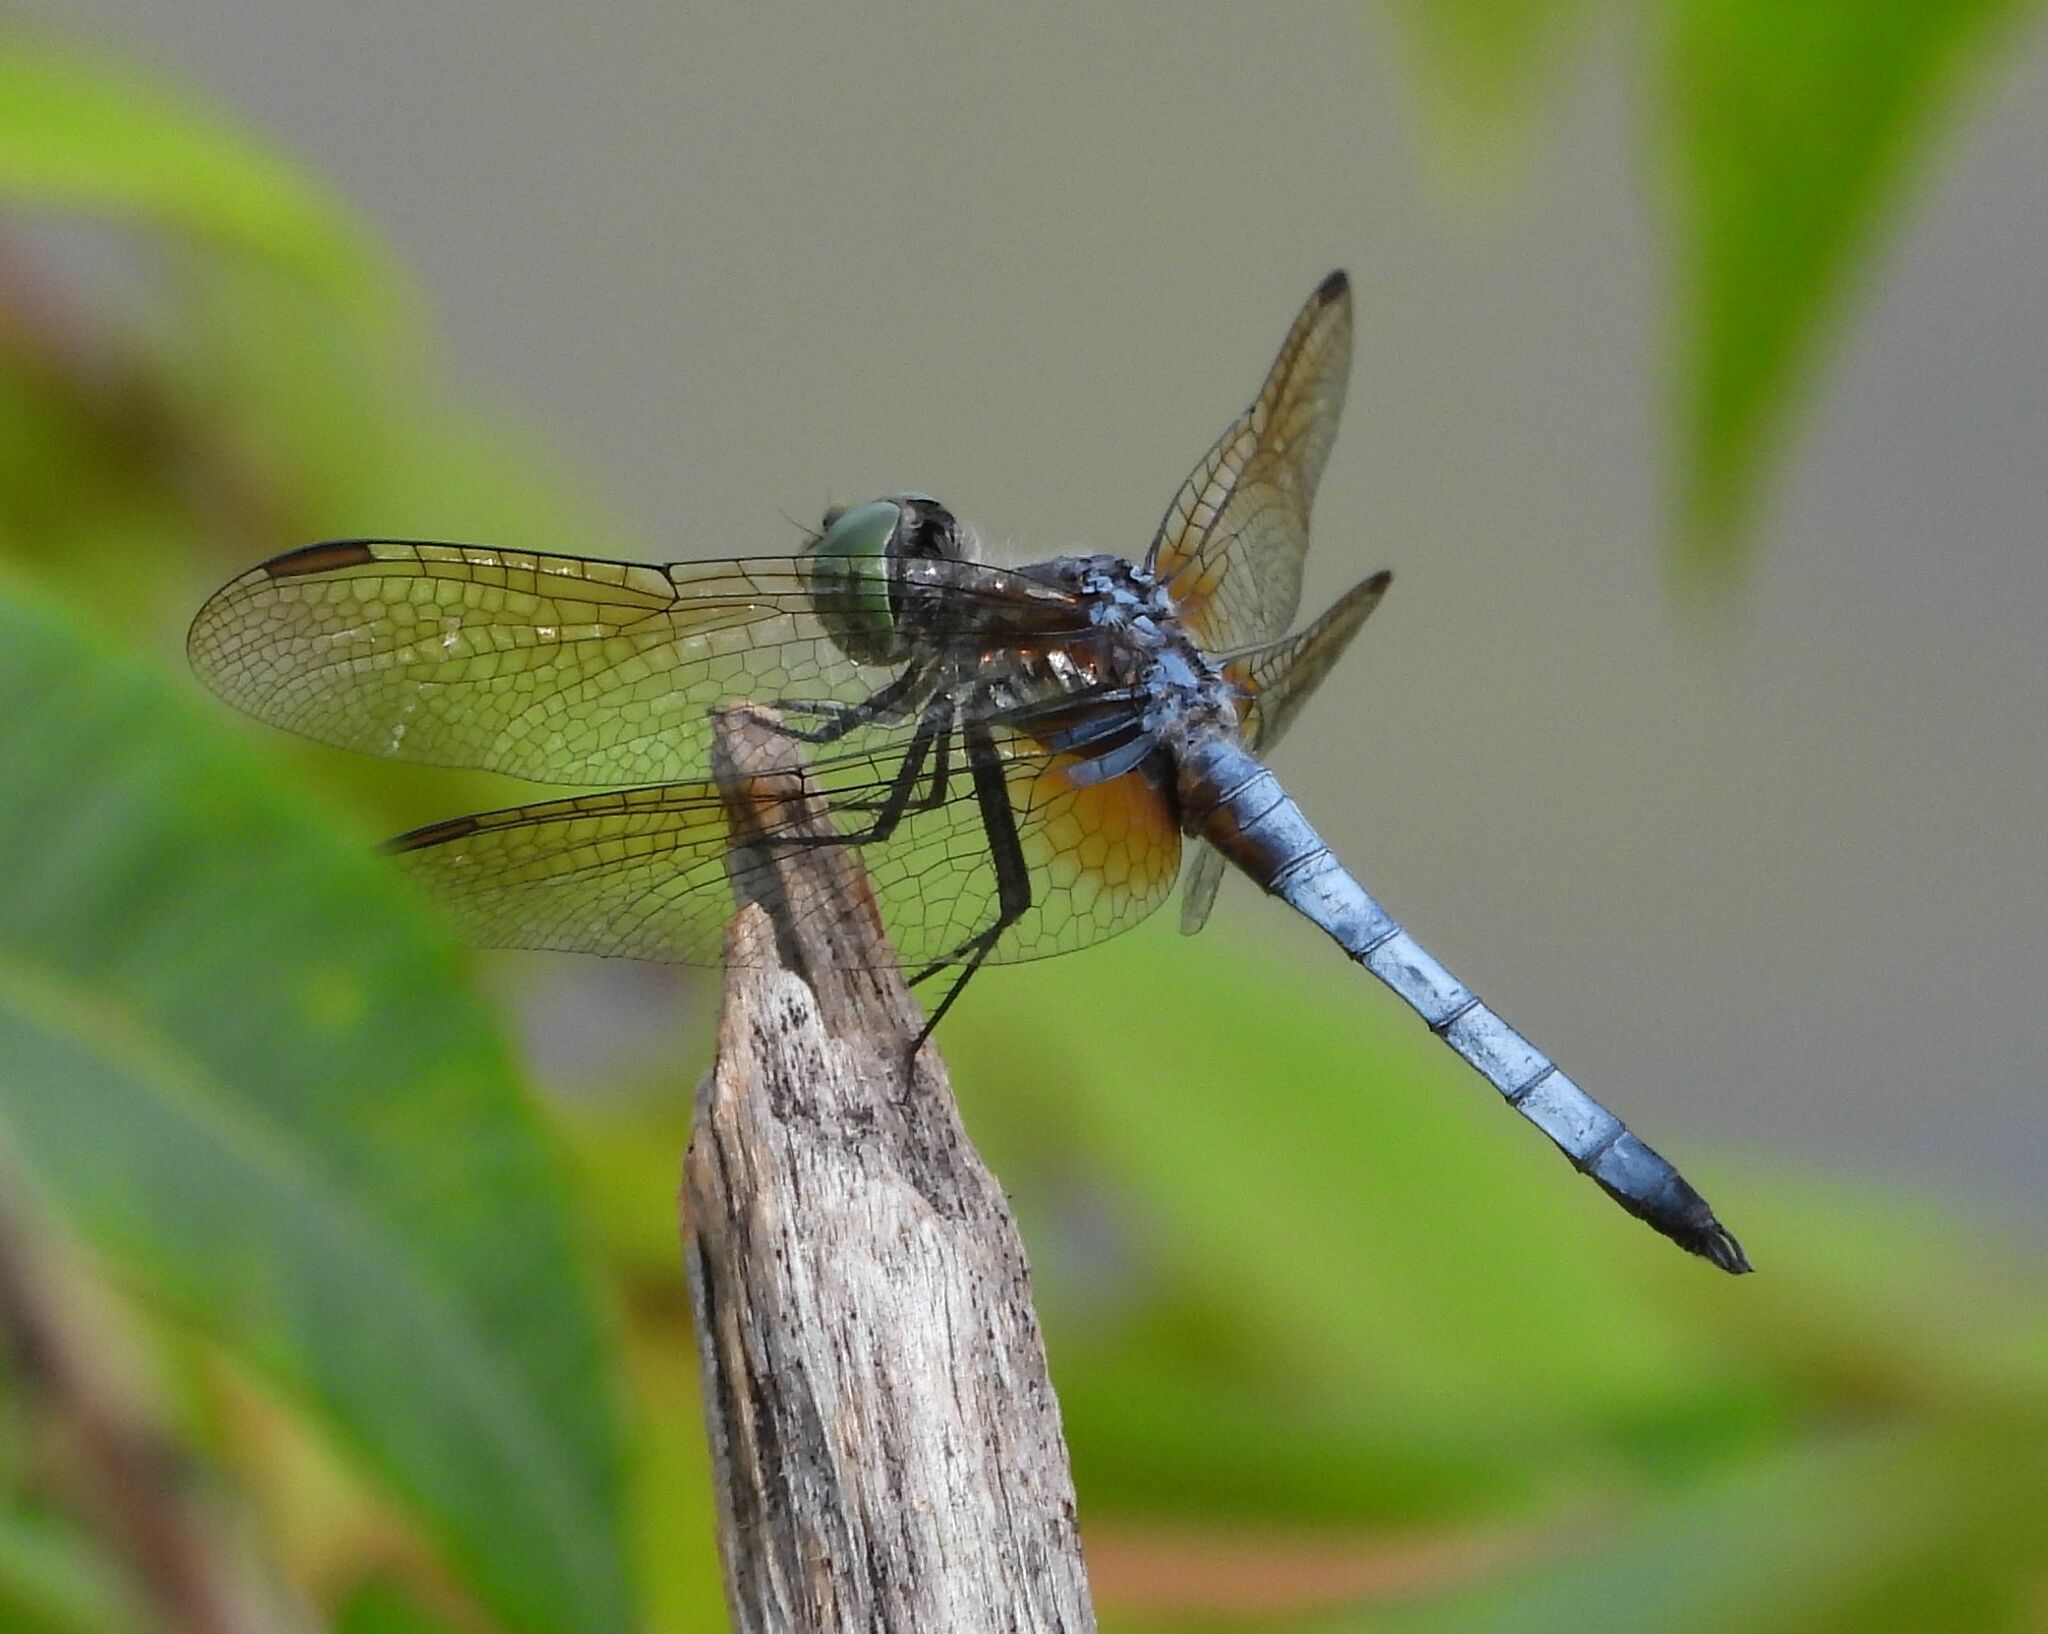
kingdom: Animalia
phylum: Arthropoda
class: Insecta
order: Odonata
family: Libellulidae
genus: Pachydiplax
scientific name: Pachydiplax longipennis
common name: Blue dasher
